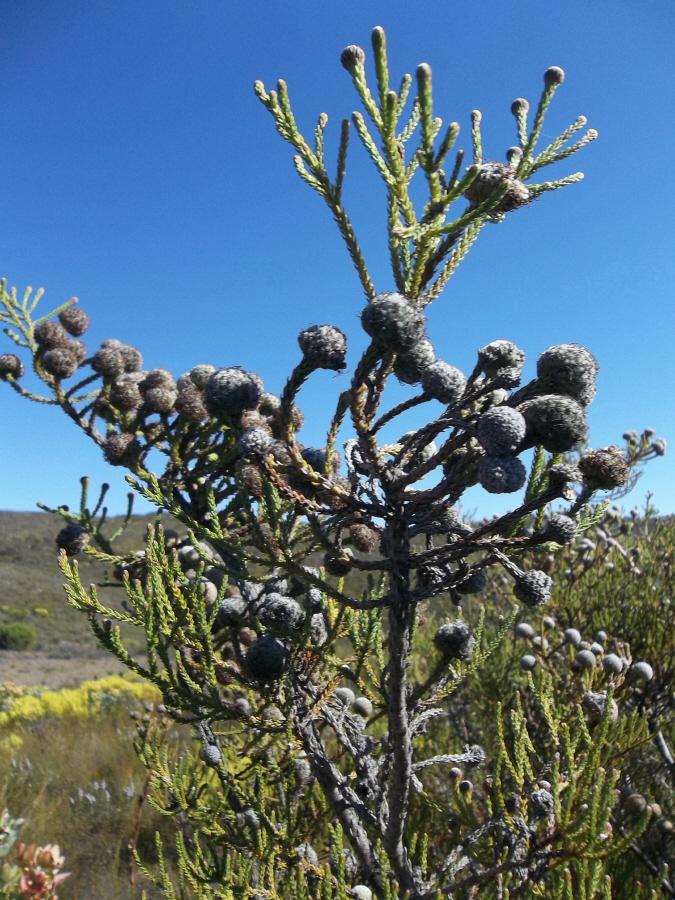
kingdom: Plantae
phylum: Tracheophyta
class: Magnoliopsida
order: Bruniales
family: Bruniaceae
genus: Brunia
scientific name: Brunia noduliflora
